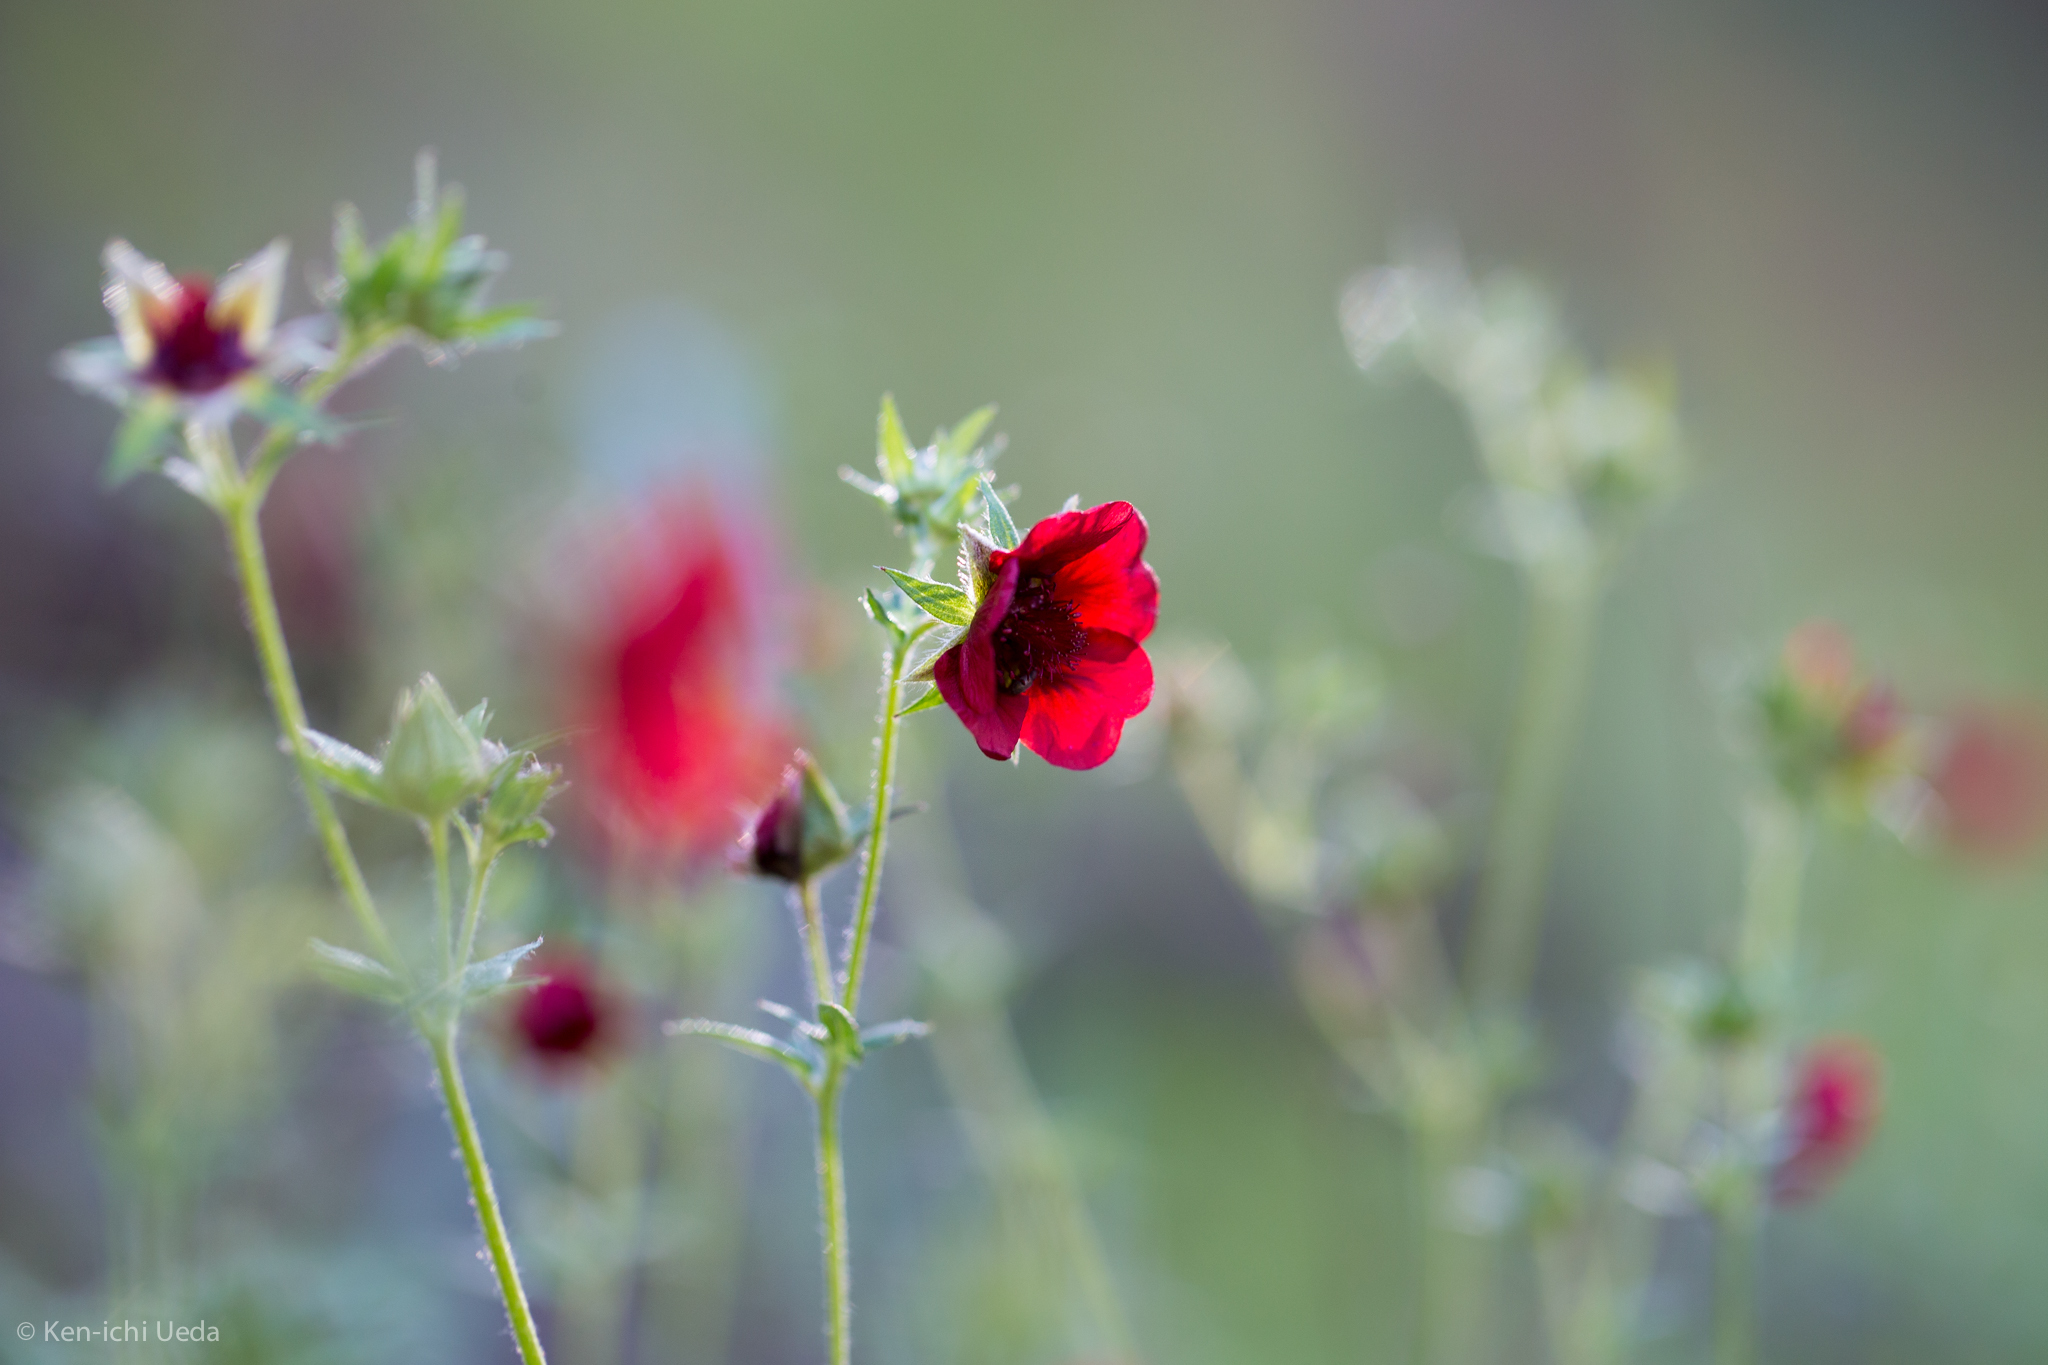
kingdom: Plantae
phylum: Tracheophyta
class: Magnoliopsida
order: Rosales
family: Rosaceae
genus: Potentilla
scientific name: Potentilla thurberi
